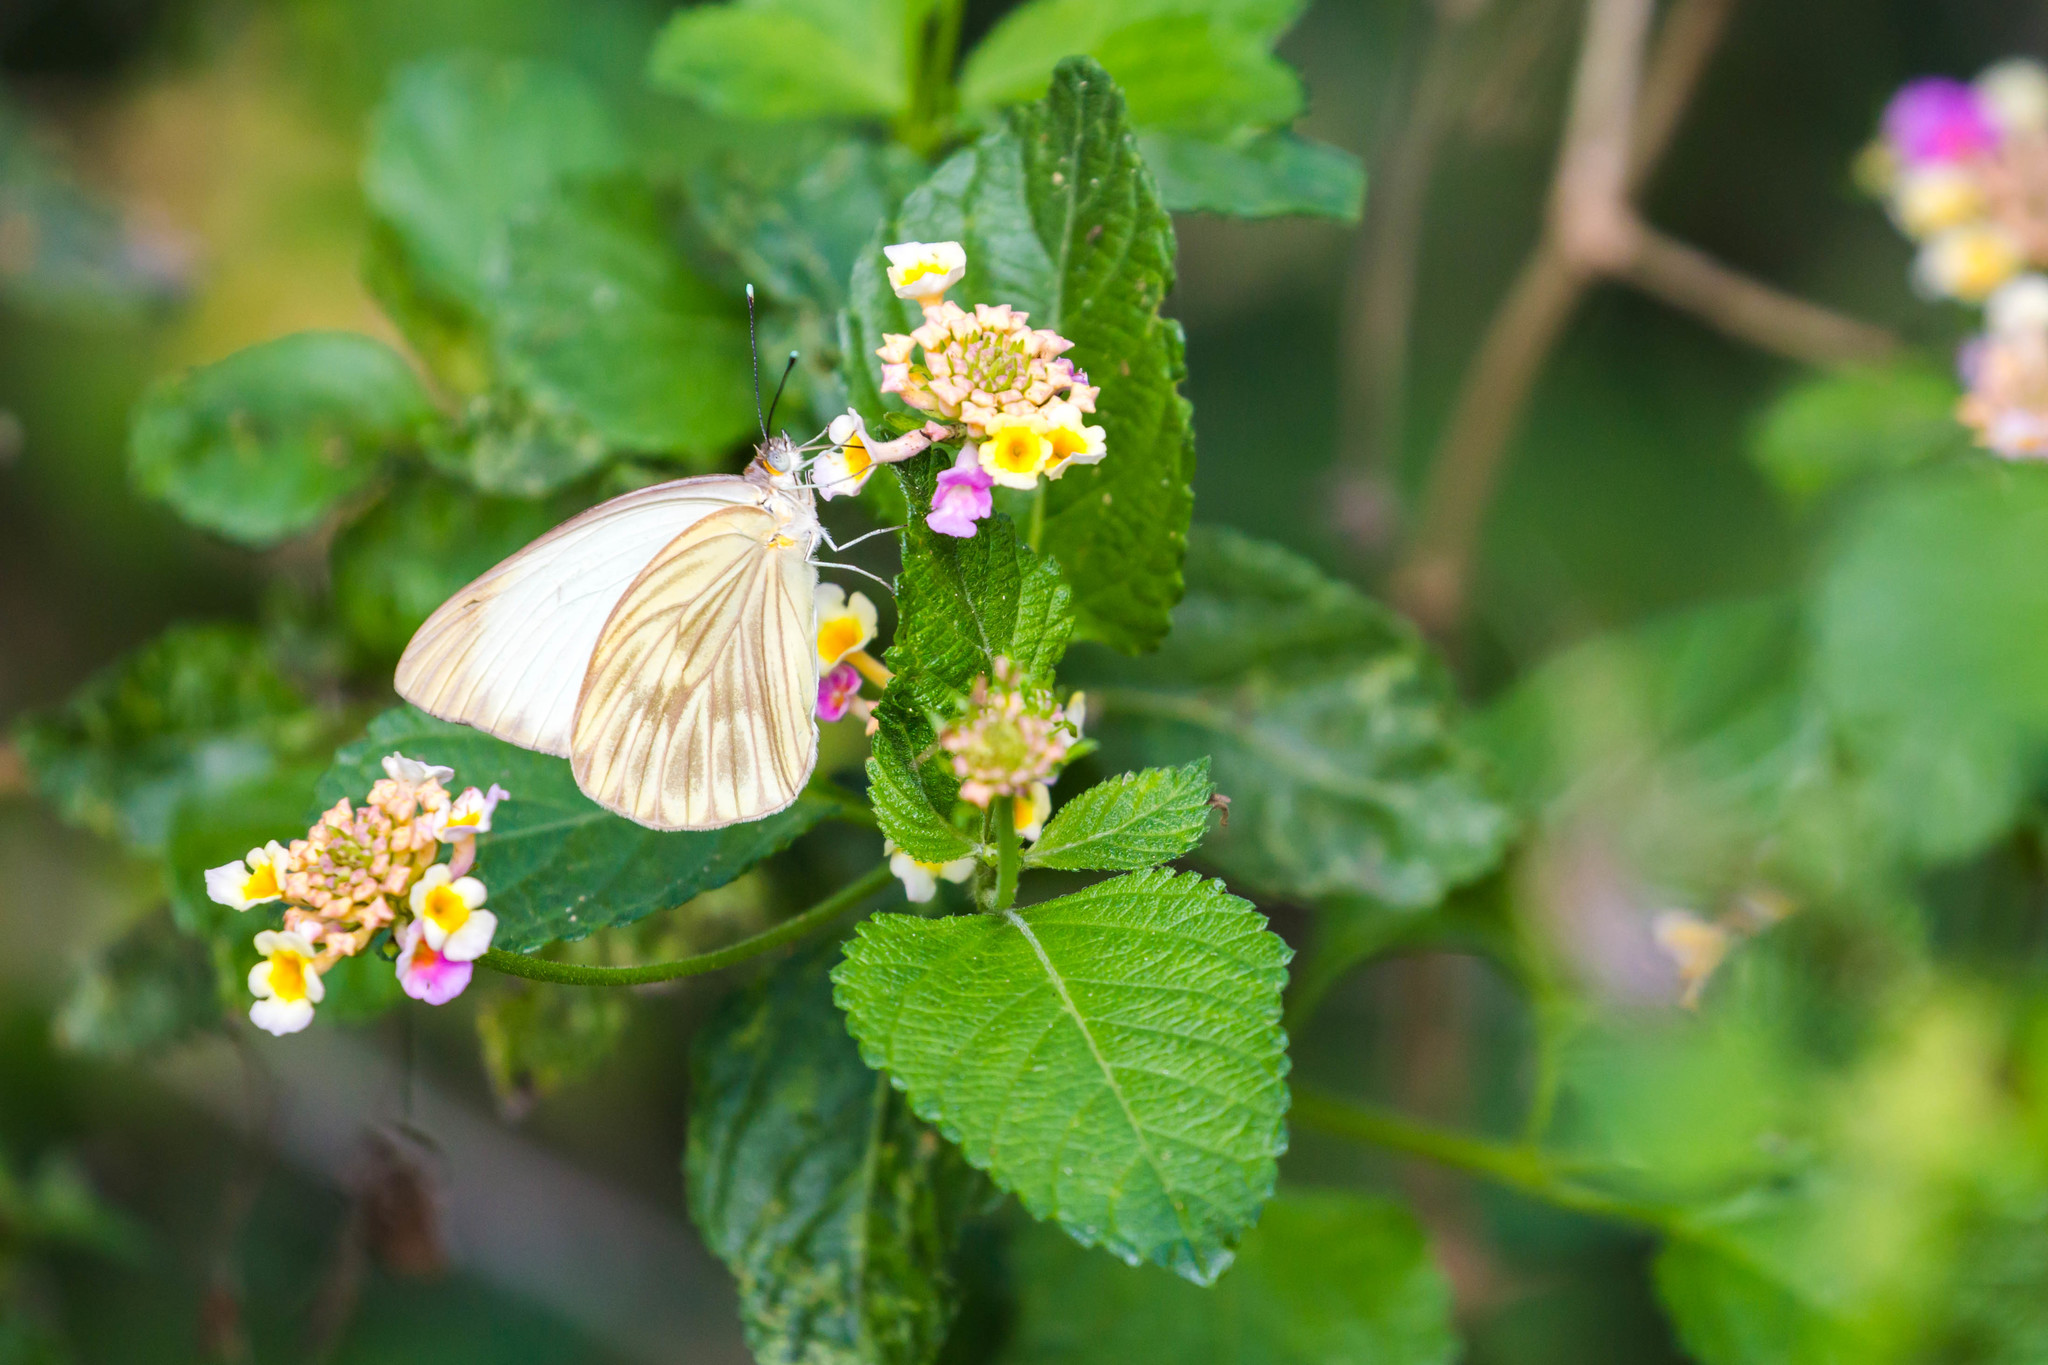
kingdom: Animalia
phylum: Arthropoda
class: Insecta
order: Lepidoptera
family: Pieridae
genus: Ascia
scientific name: Ascia monuste
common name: Great southern white
